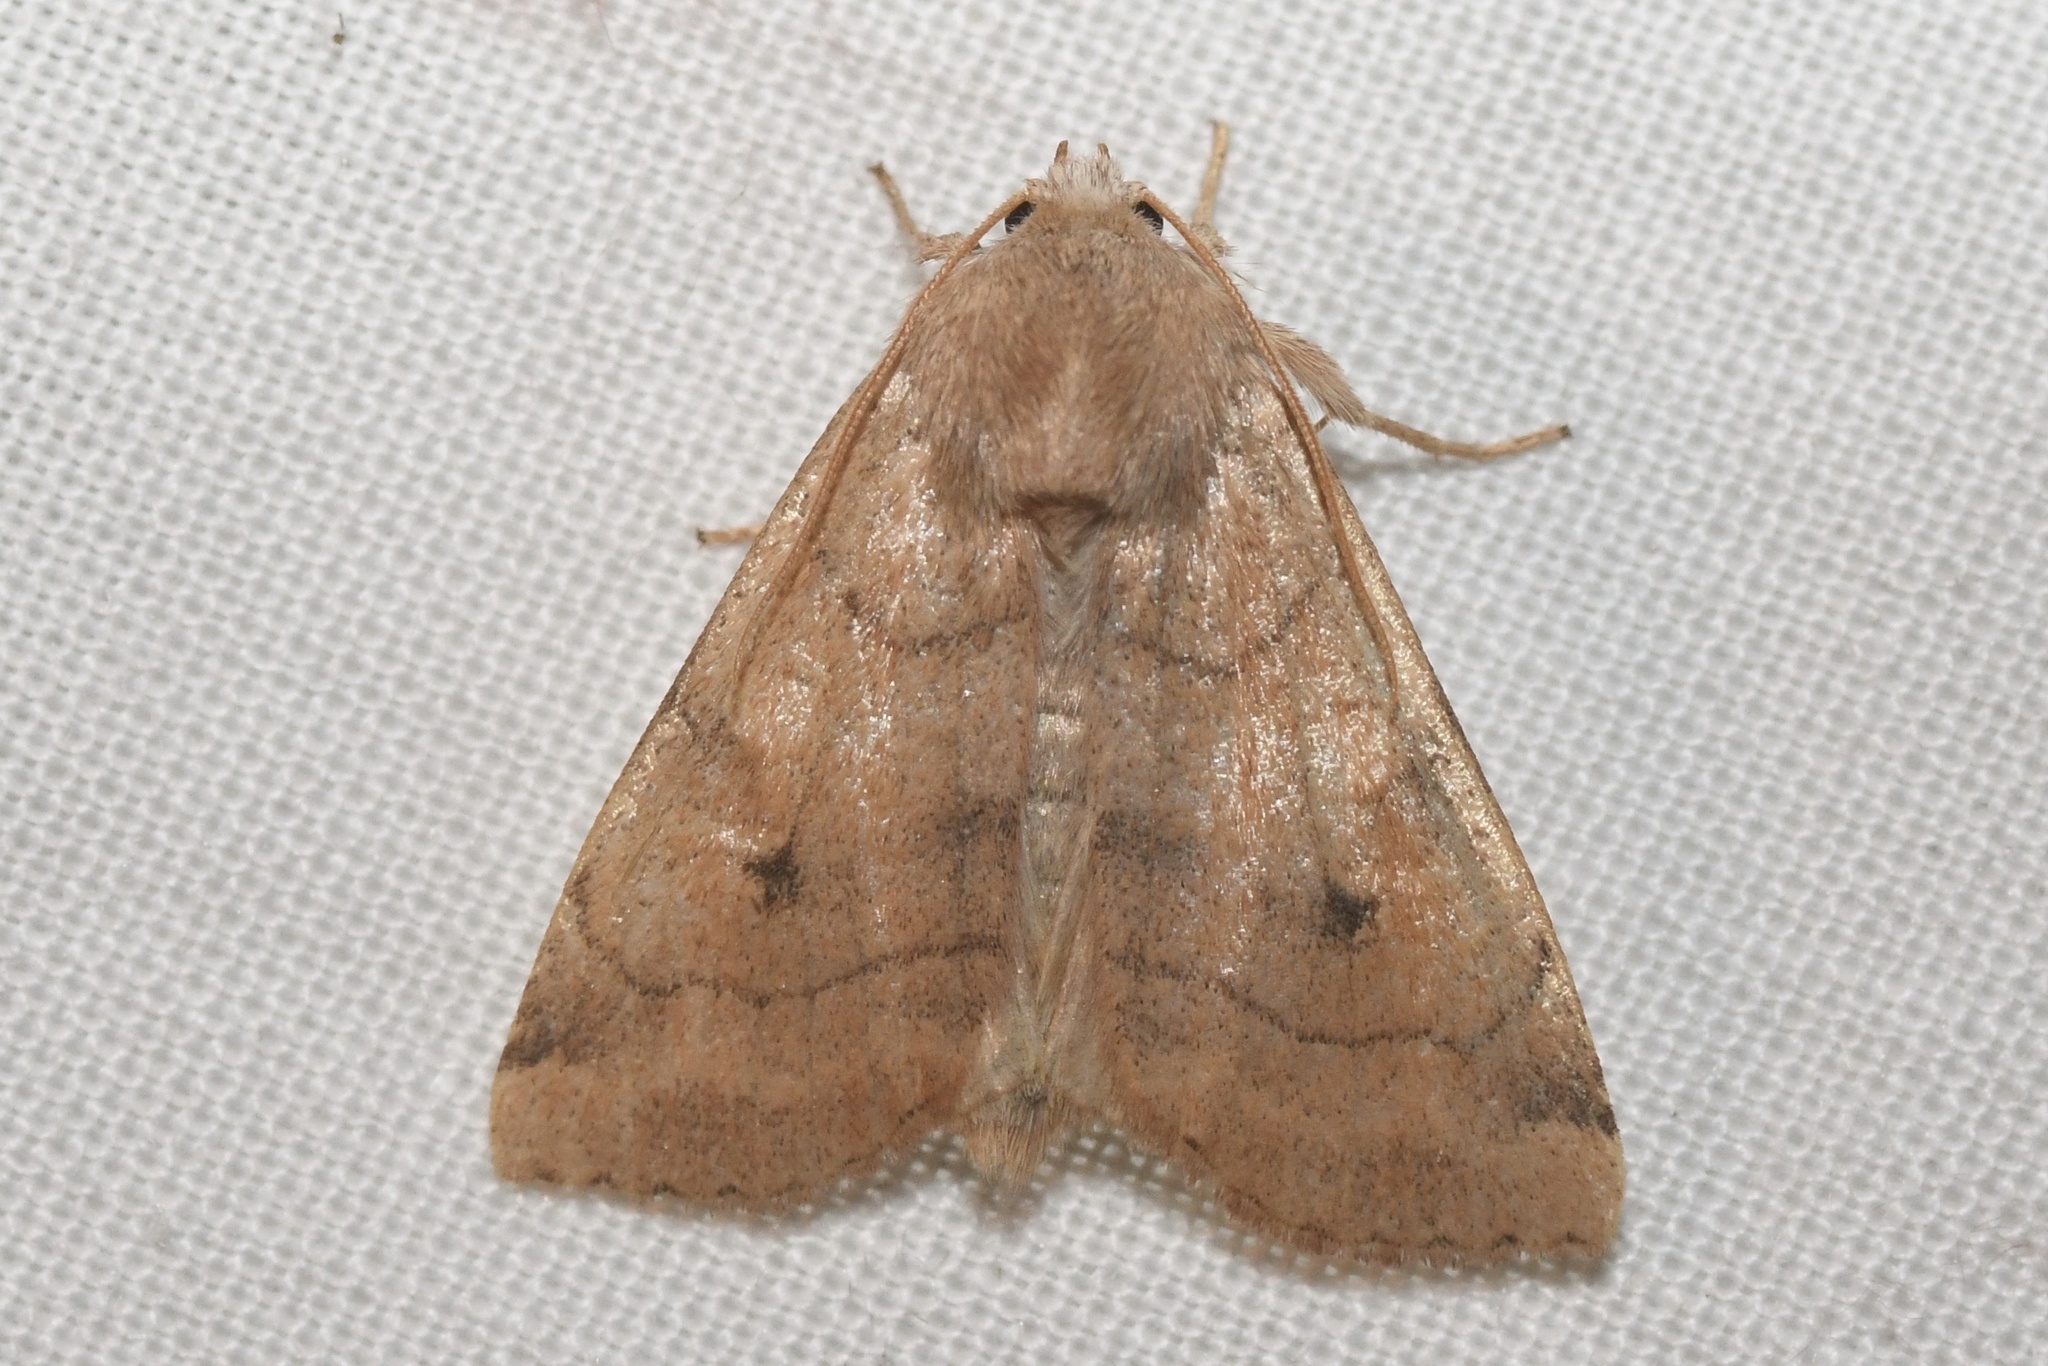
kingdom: Animalia
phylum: Arthropoda
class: Insecta
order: Lepidoptera
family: Noctuidae
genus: Enargia
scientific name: Enargia infumata
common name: Smoked sallow
